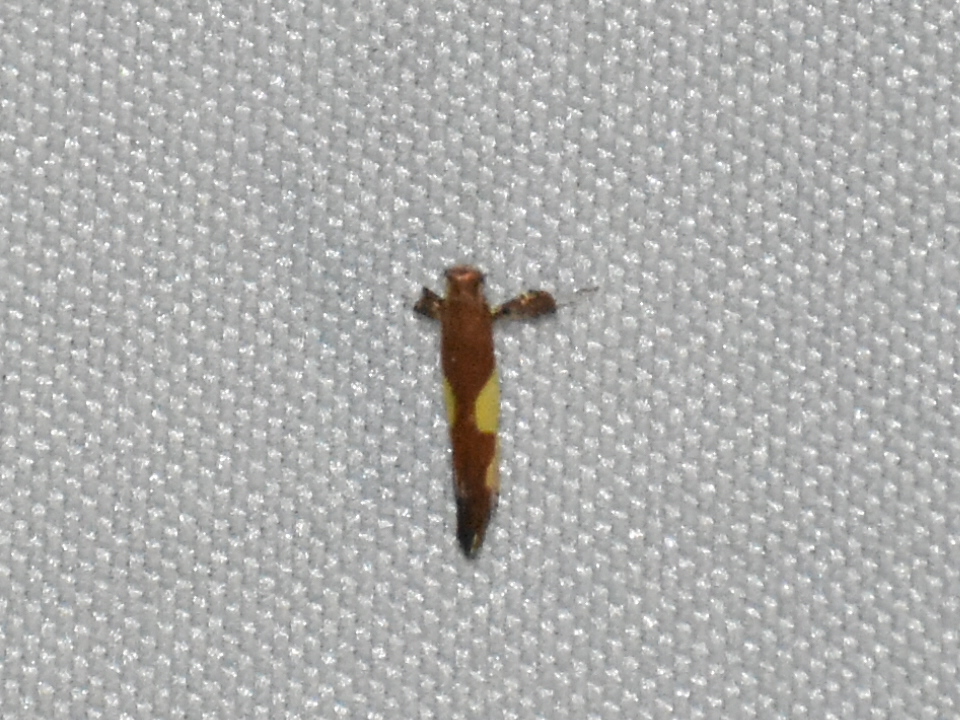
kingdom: Animalia
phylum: Arthropoda
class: Insecta
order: Lepidoptera
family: Gracillariidae
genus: Caloptilia
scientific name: Caloptilia bimaculatella
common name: Maple caloptilia moth
